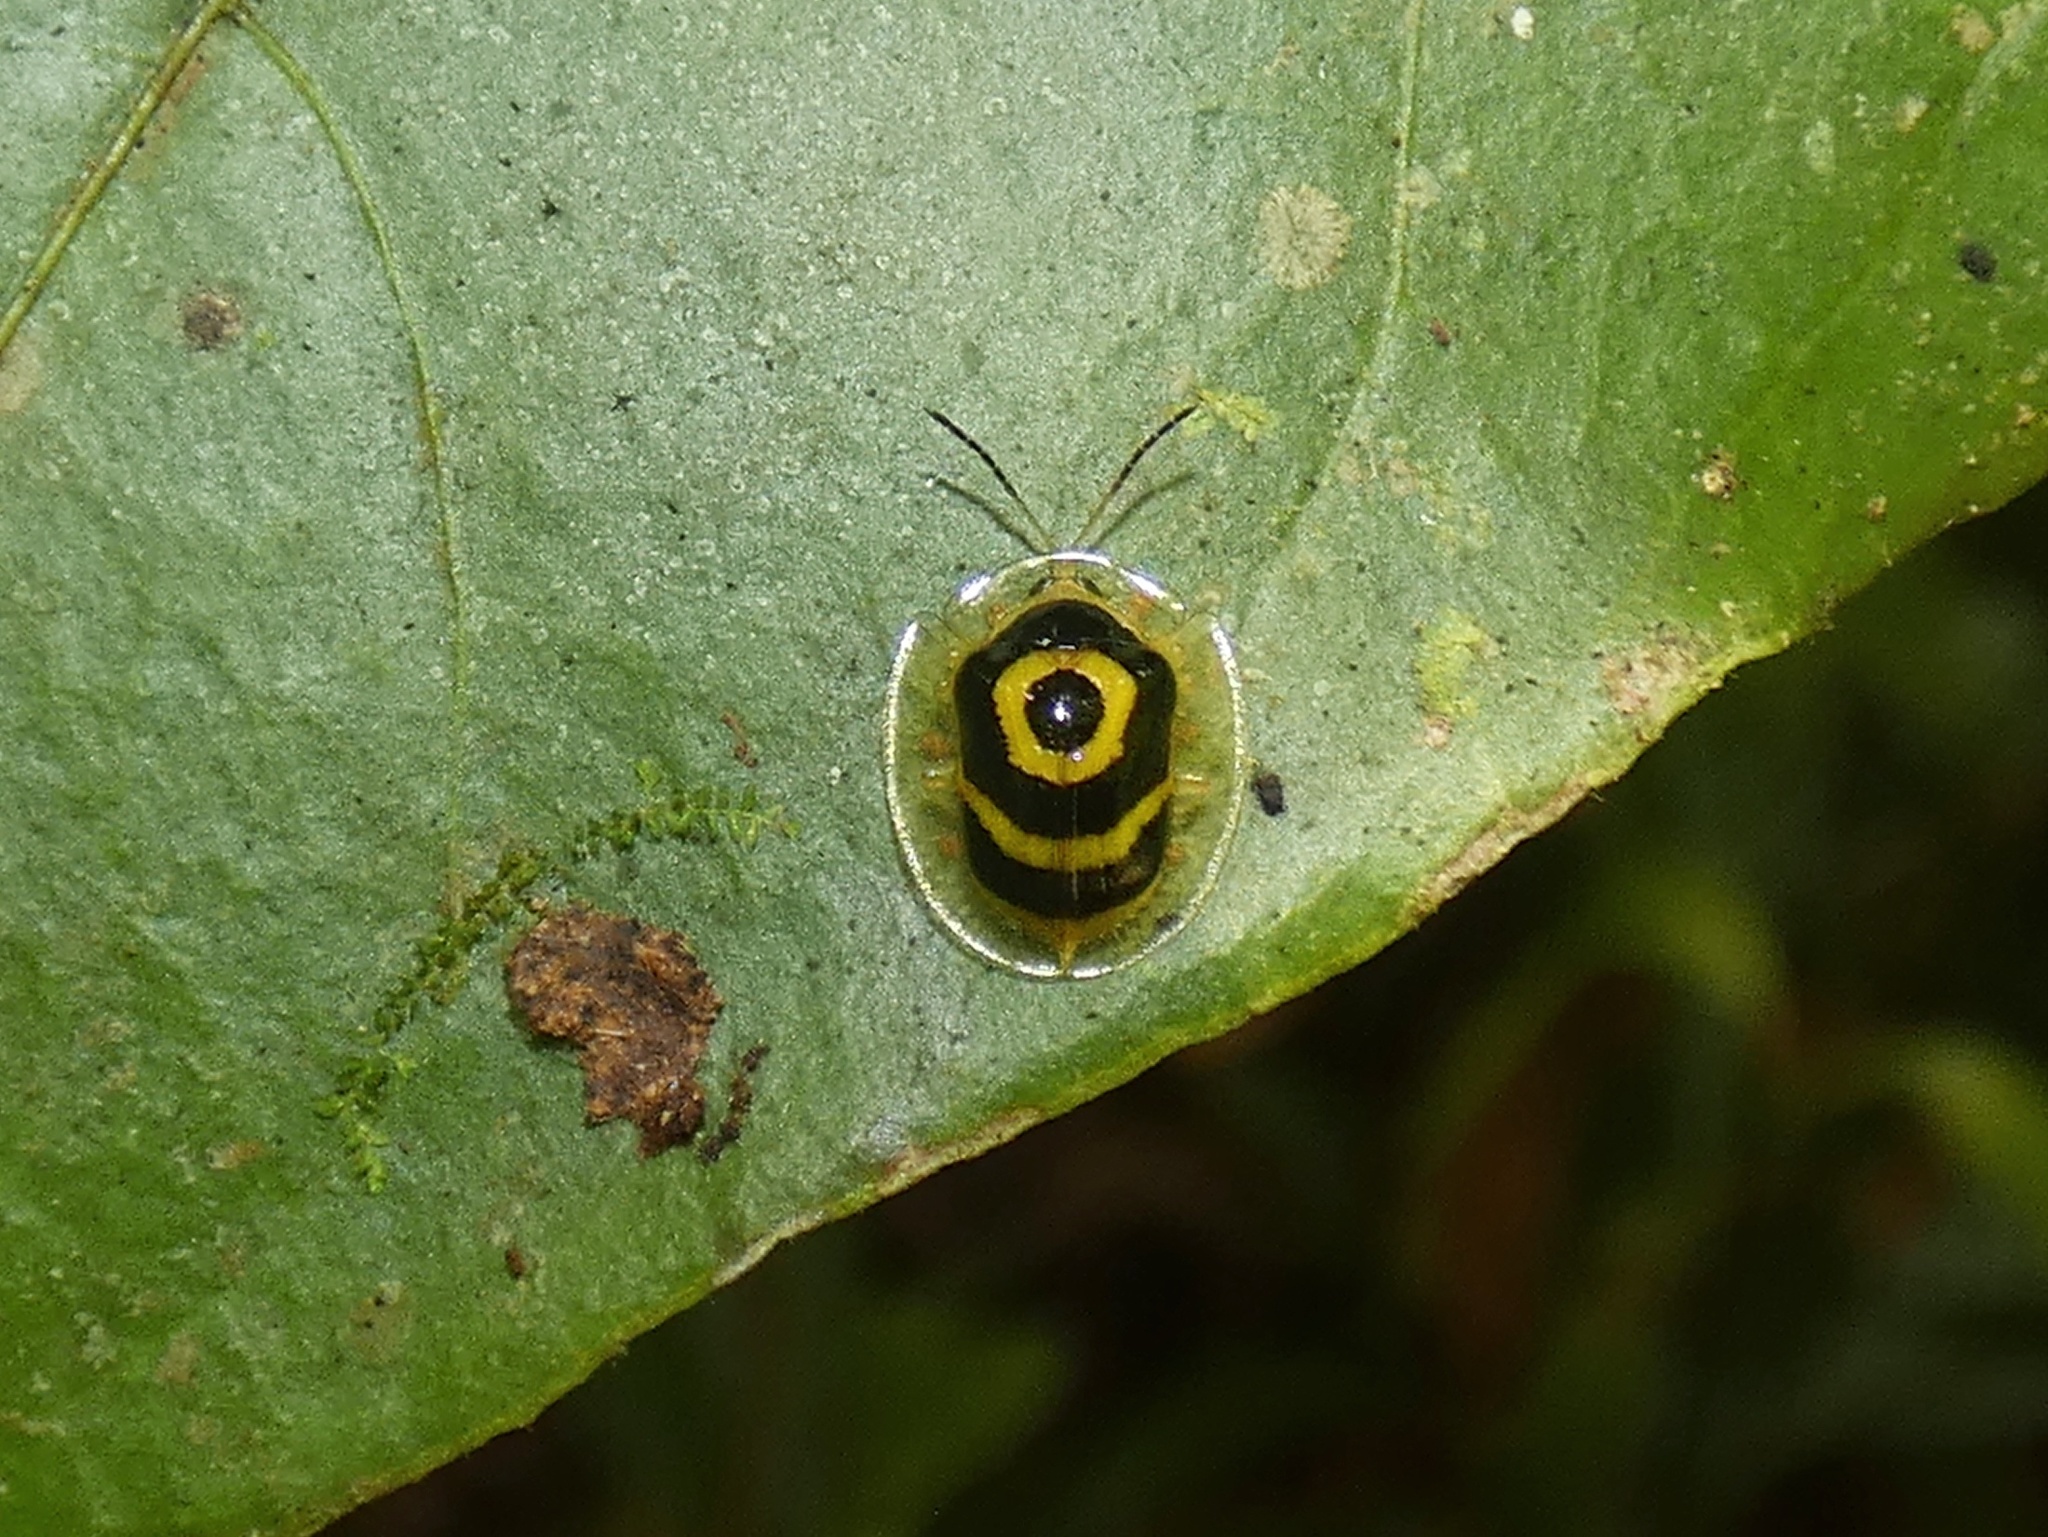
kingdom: Animalia
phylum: Arthropoda
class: Insecta
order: Coleoptera
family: Chrysomelidae
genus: Ischnocodia
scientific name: Ischnocodia annulus
